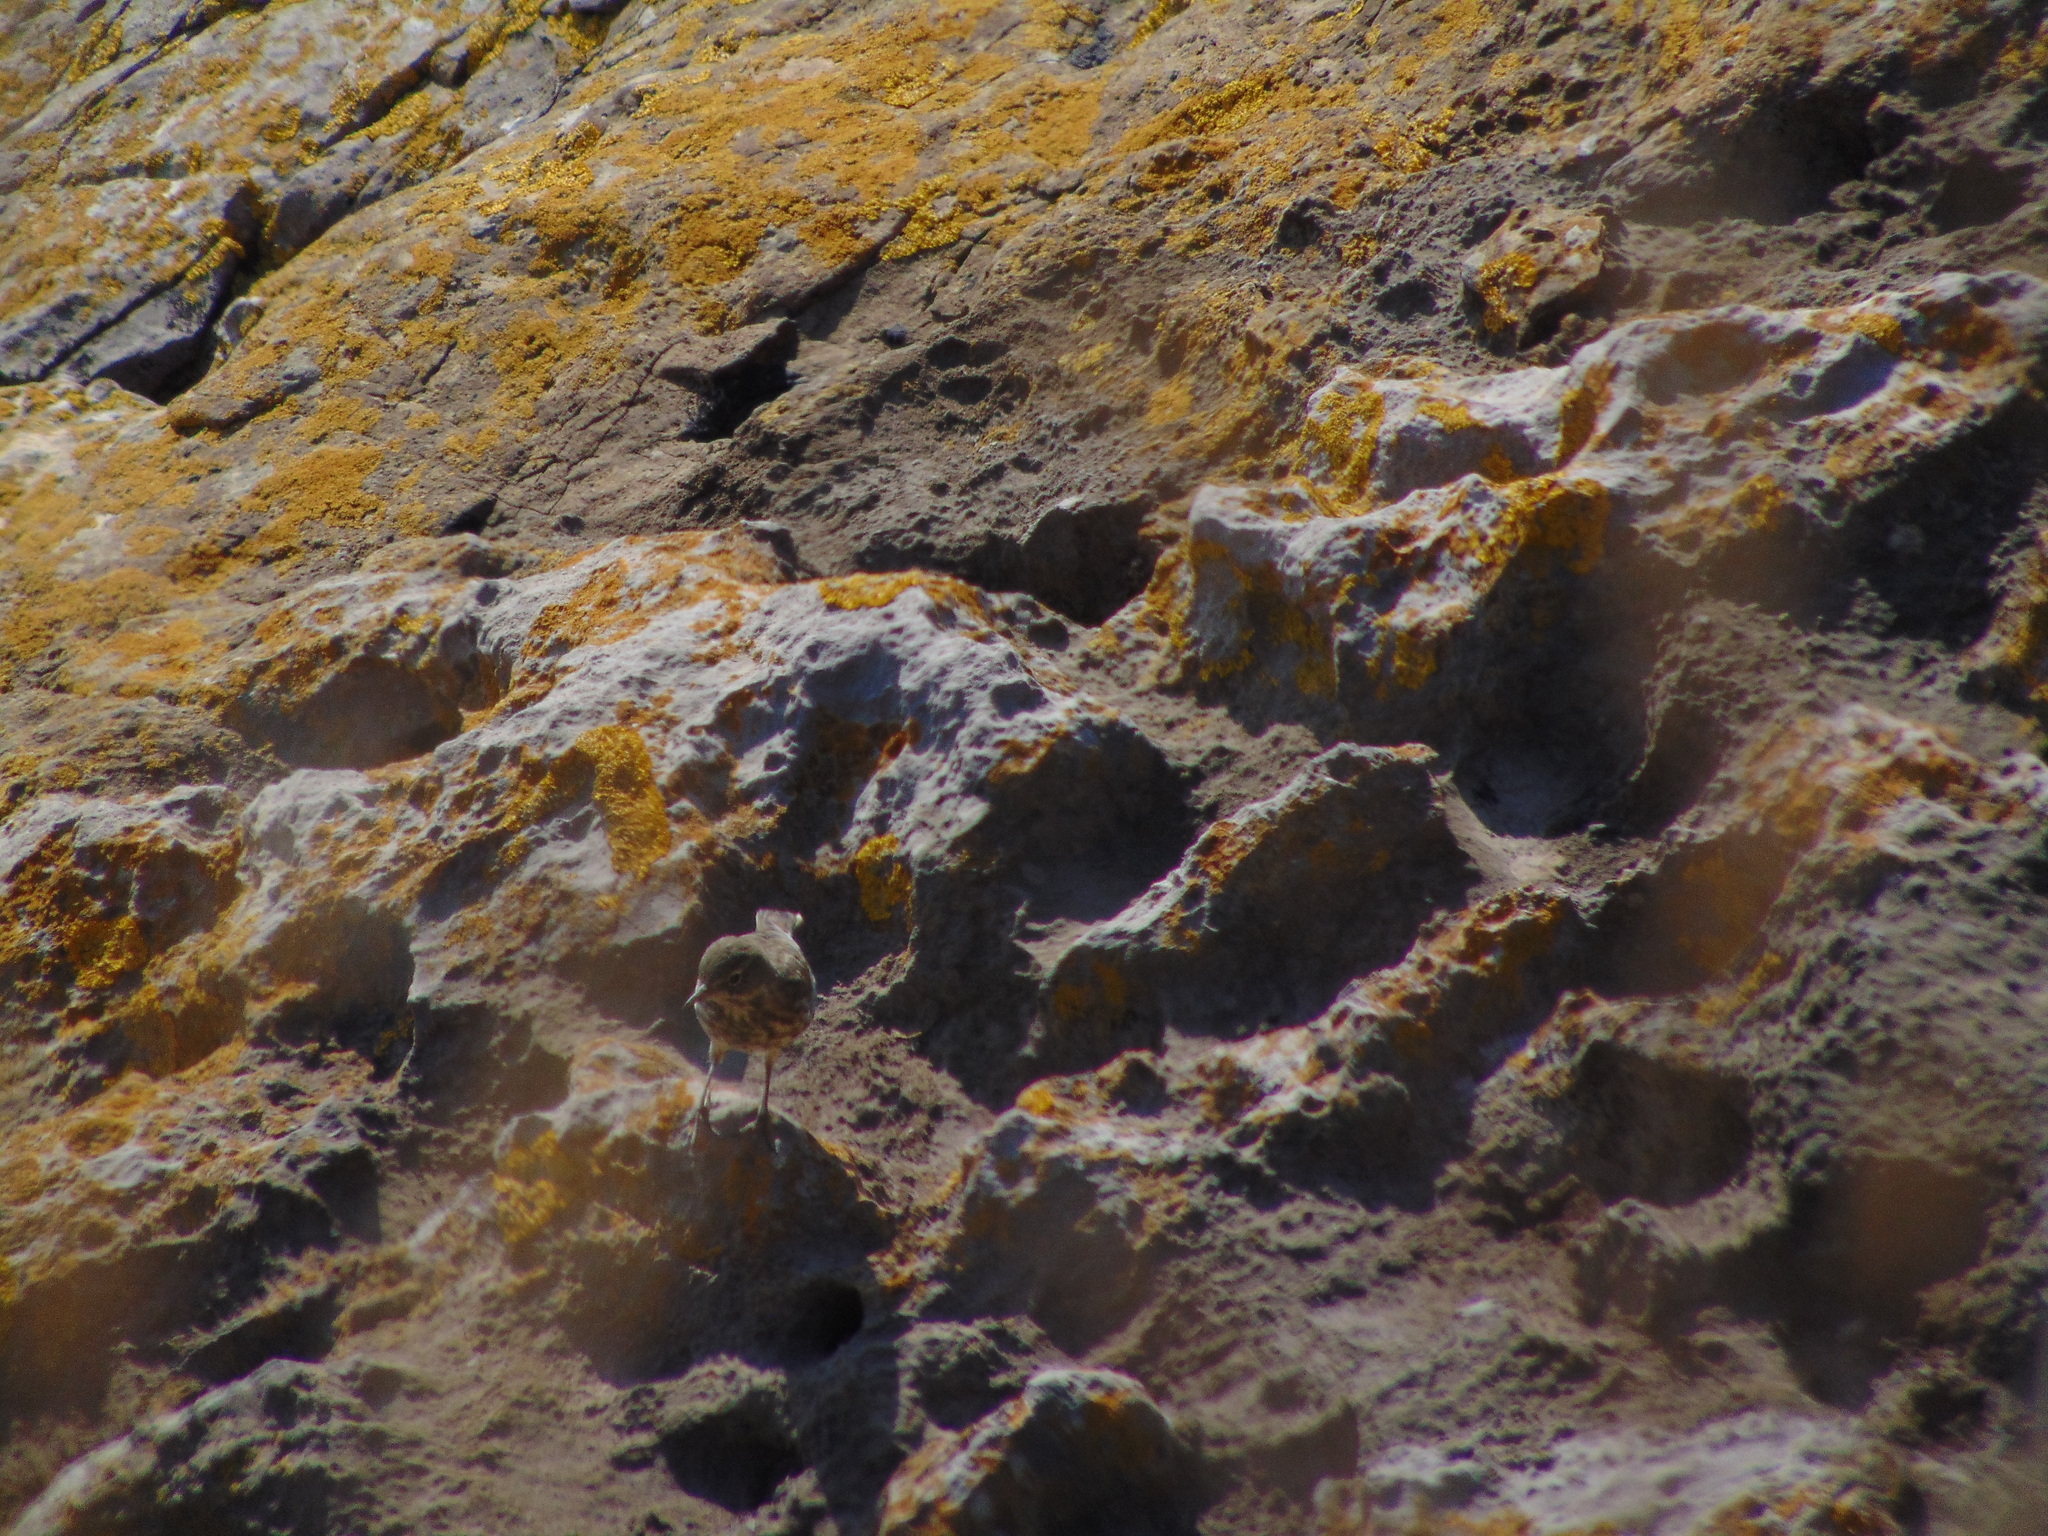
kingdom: Animalia
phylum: Chordata
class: Aves
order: Passeriformes
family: Motacillidae
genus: Anthus
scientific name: Anthus petrosus
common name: Eurasian rock pipit
